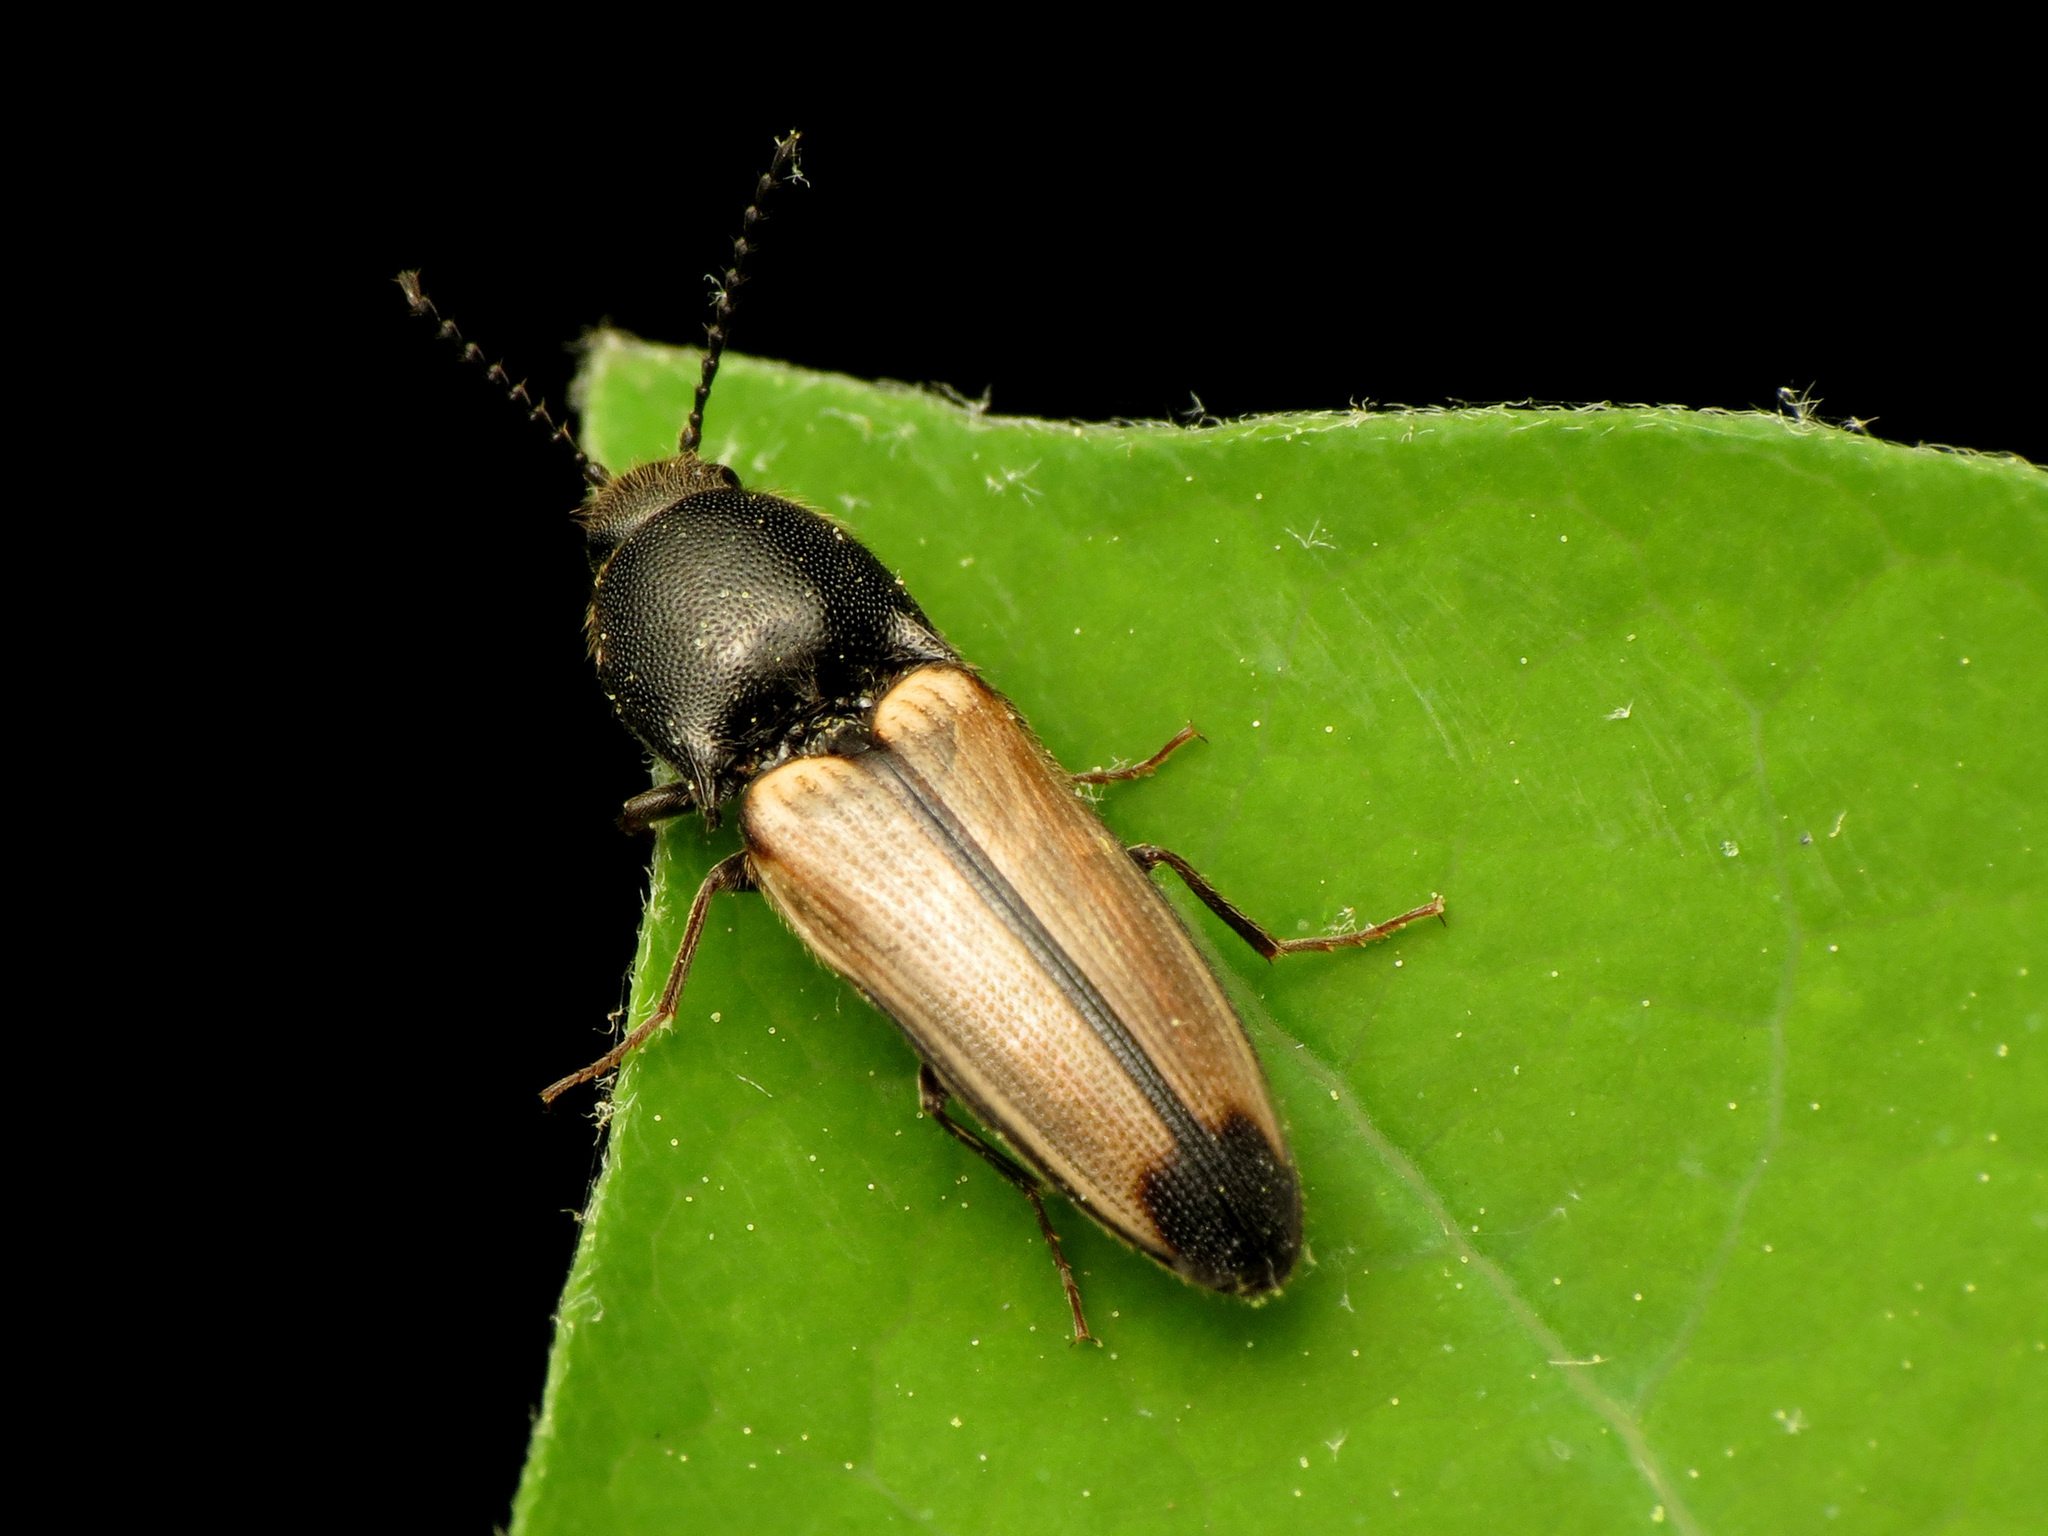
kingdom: Animalia
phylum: Arthropoda
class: Insecta
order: Coleoptera
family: Elateridae
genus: Ampedus
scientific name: Ampedus linteus
